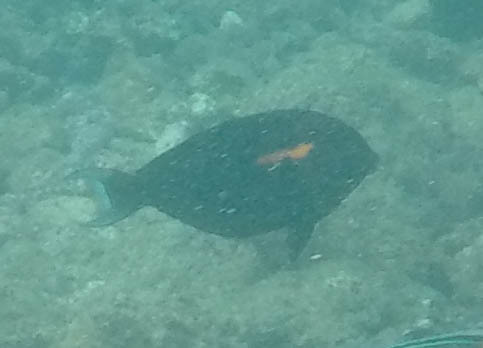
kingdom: Animalia
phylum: Chordata
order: Perciformes
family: Acanthuridae
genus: Acanthurus
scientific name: Acanthurus olivaceus
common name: Gendarme fish
